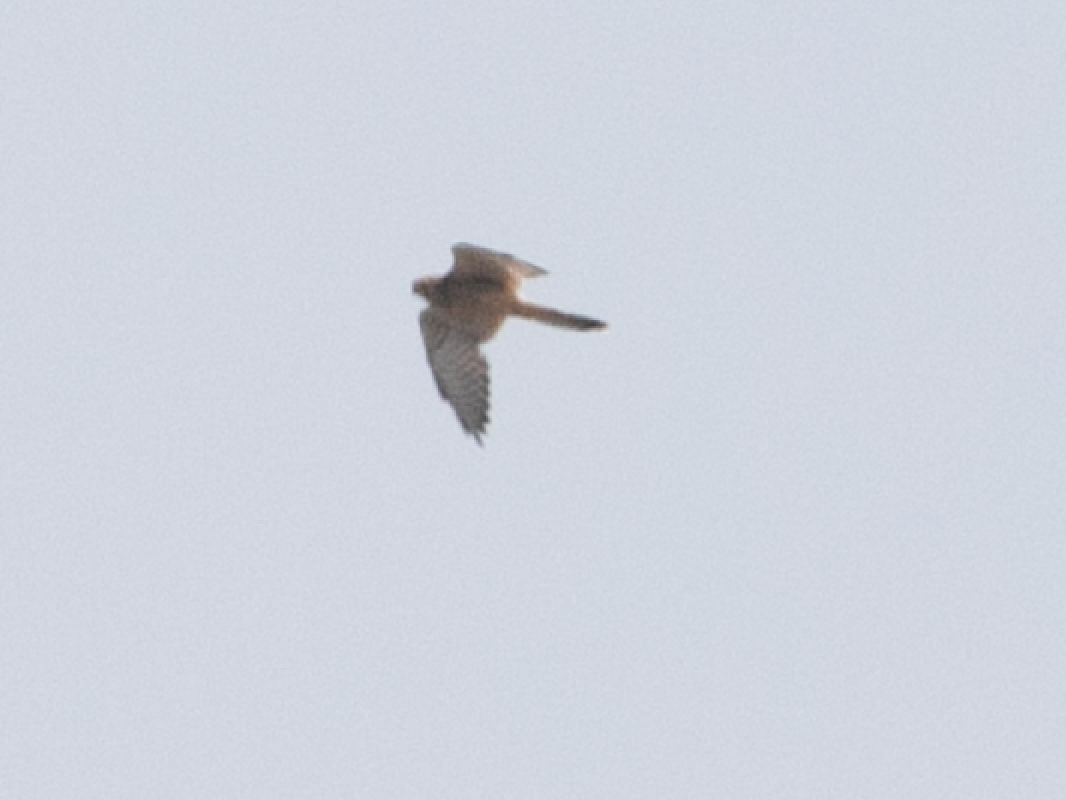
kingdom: Animalia
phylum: Chordata
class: Aves
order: Falconiformes
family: Falconidae
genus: Falco
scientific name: Falco tinnunculus
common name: Common kestrel
